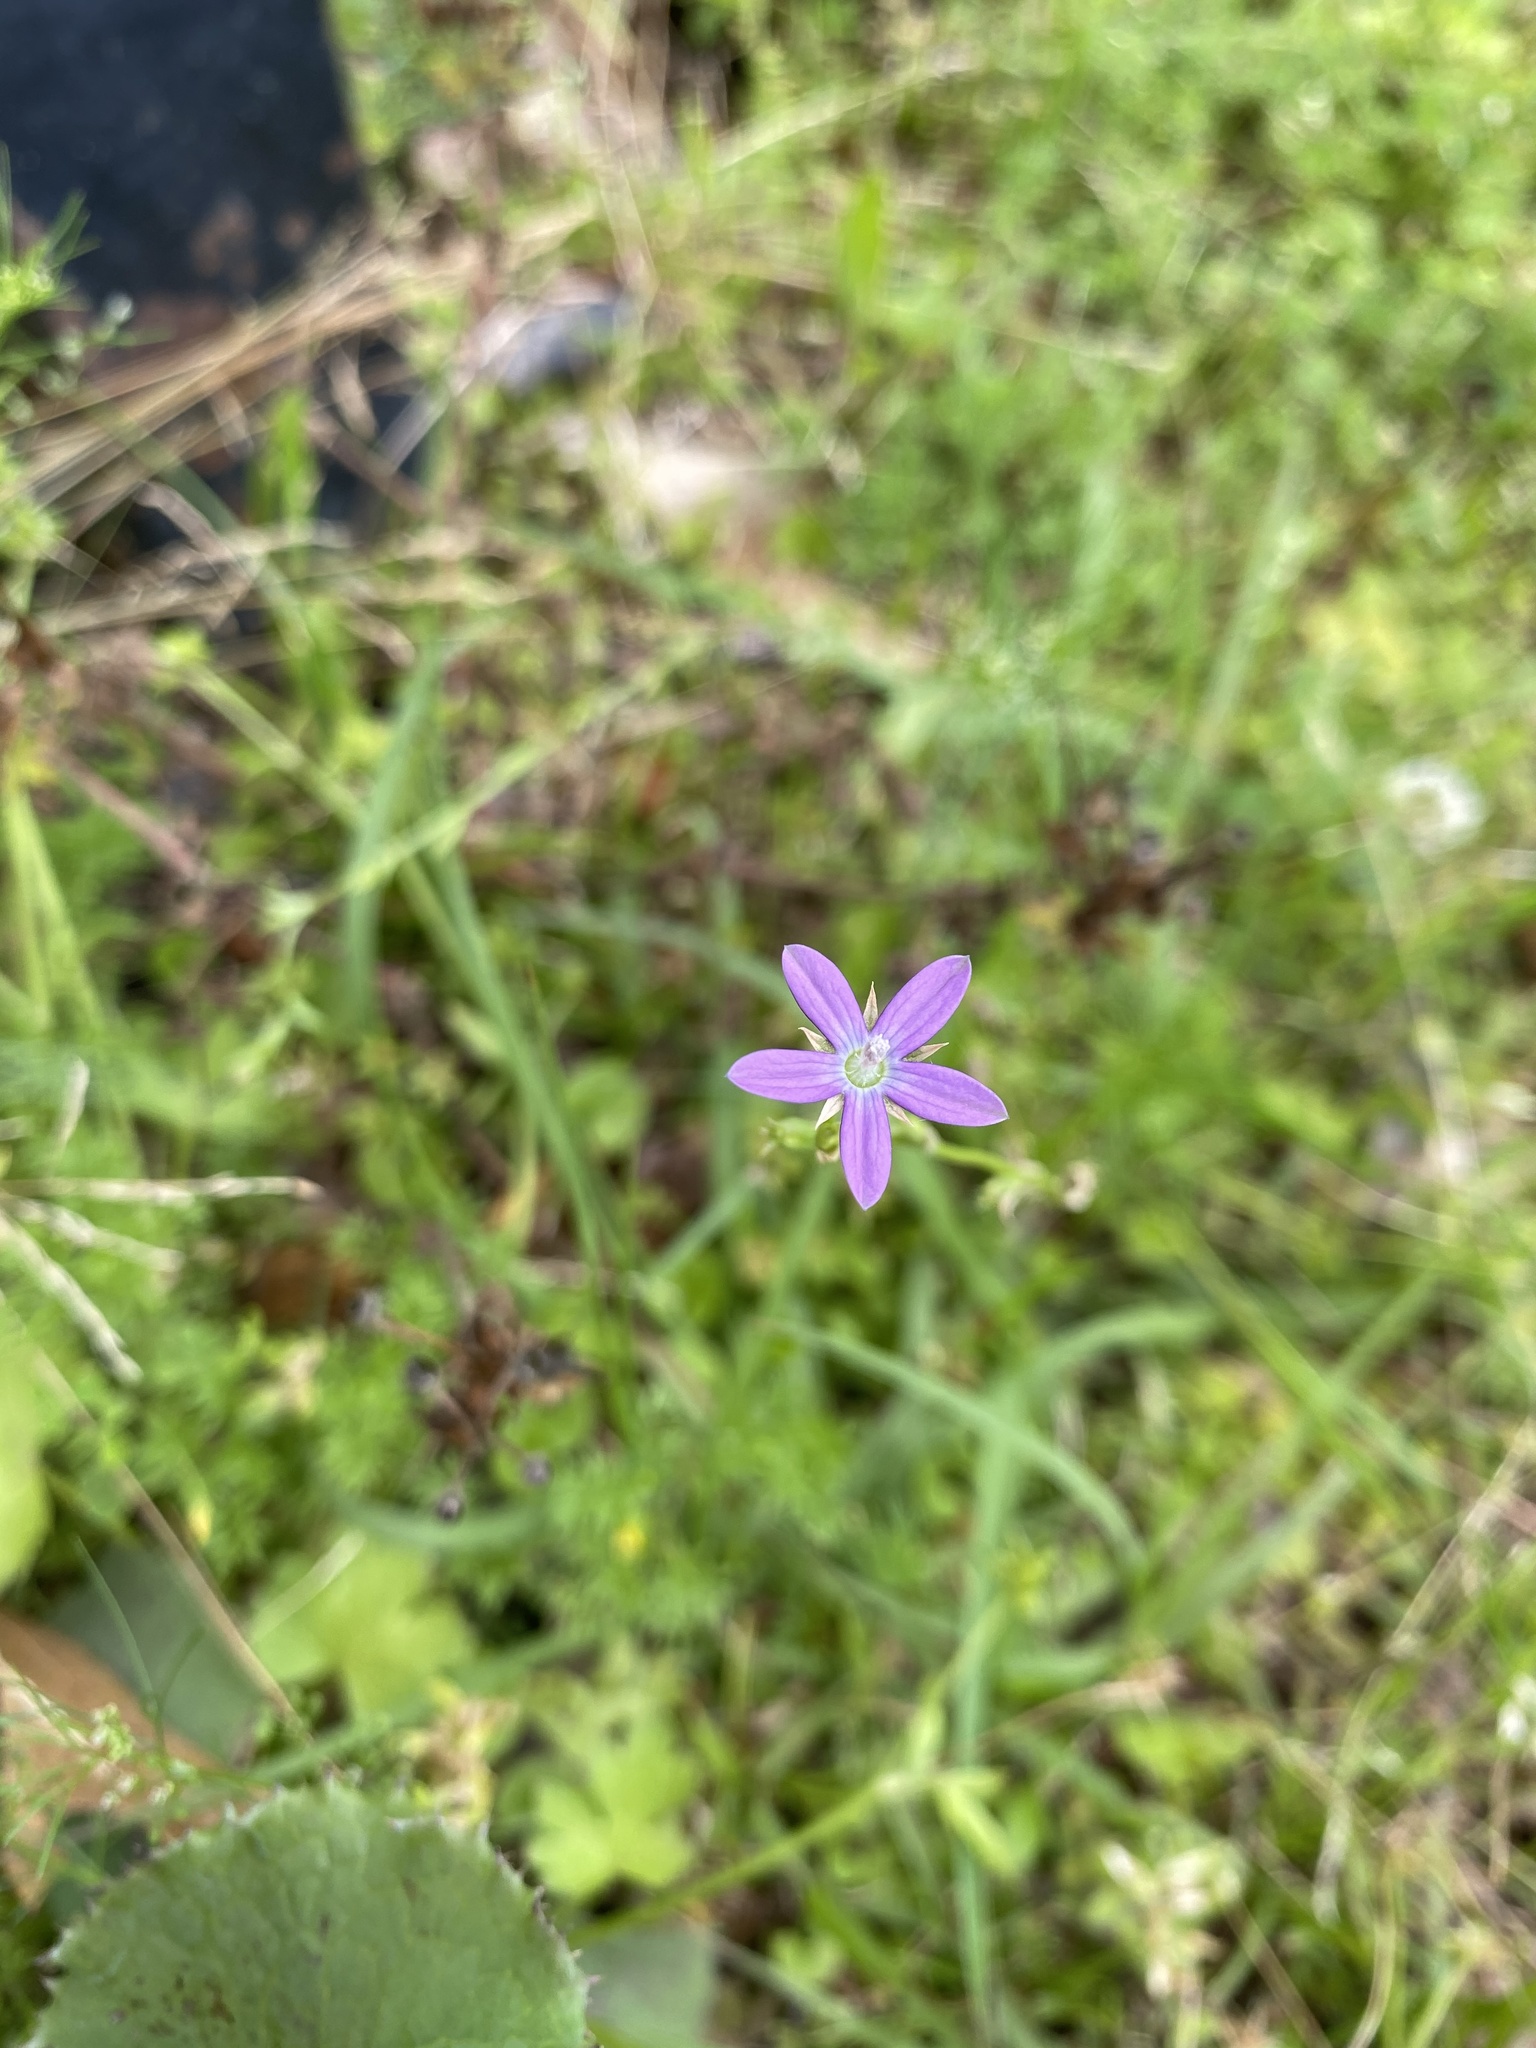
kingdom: Plantae
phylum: Tracheophyta
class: Magnoliopsida
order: Asterales
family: Campanulaceae
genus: Triodanis
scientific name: Triodanis biflora
